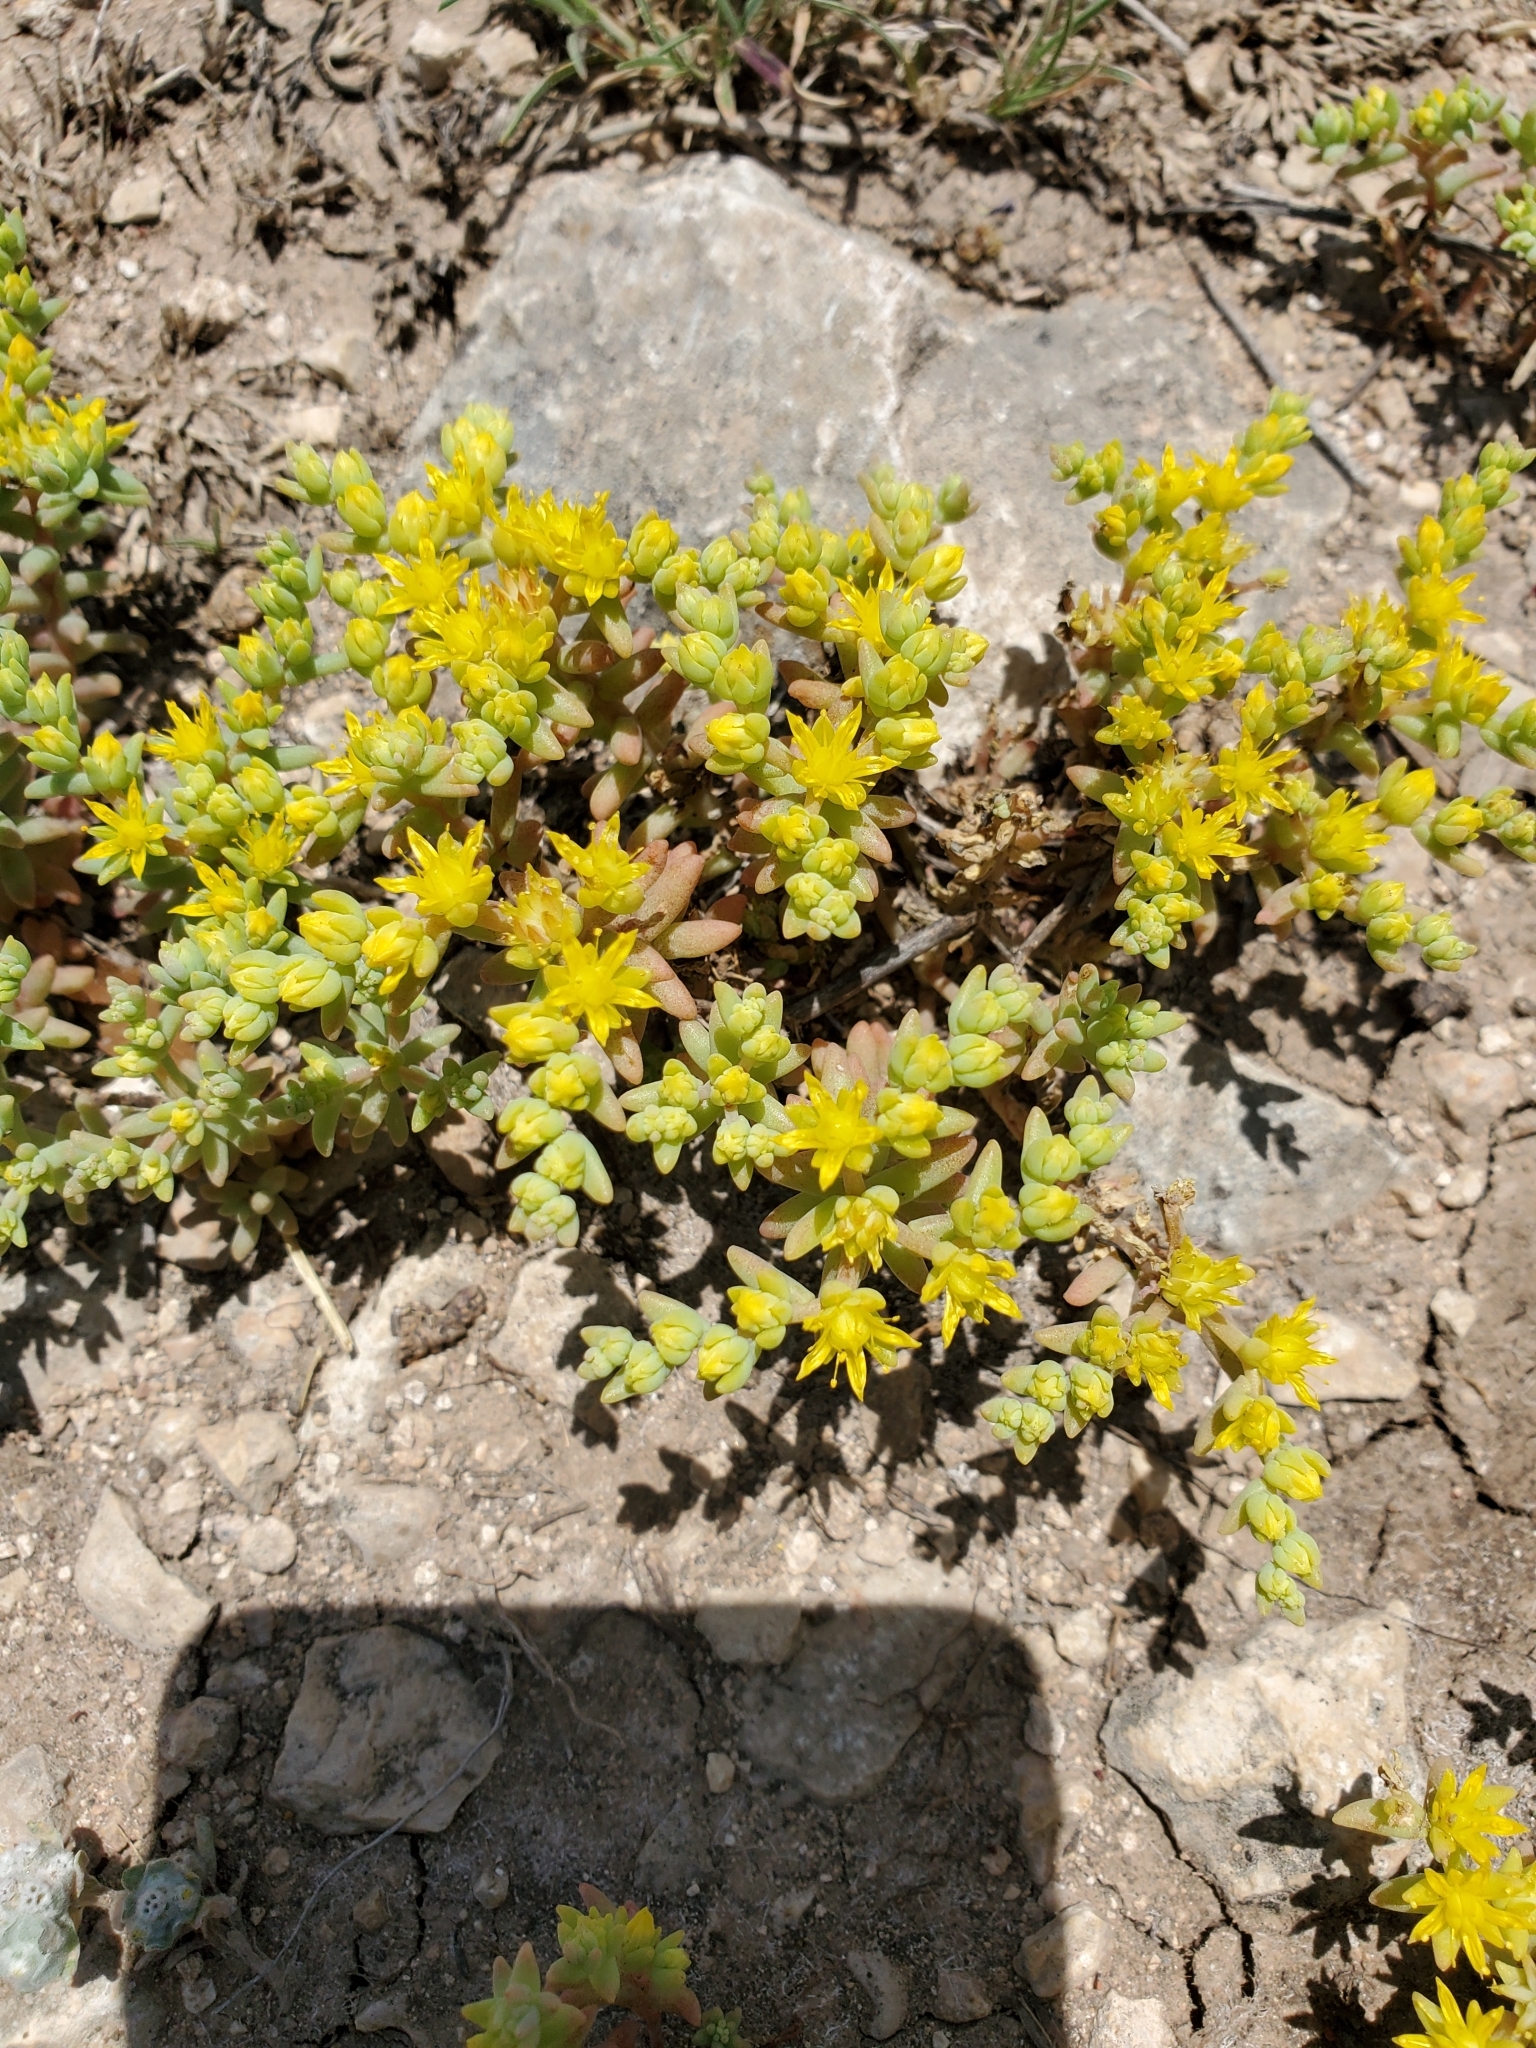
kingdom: Plantae
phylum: Tracheophyta
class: Magnoliopsida
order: Saxifragales
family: Crassulaceae
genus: Sedum
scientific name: Sedum nuttallii
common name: Yellow stonecrop
